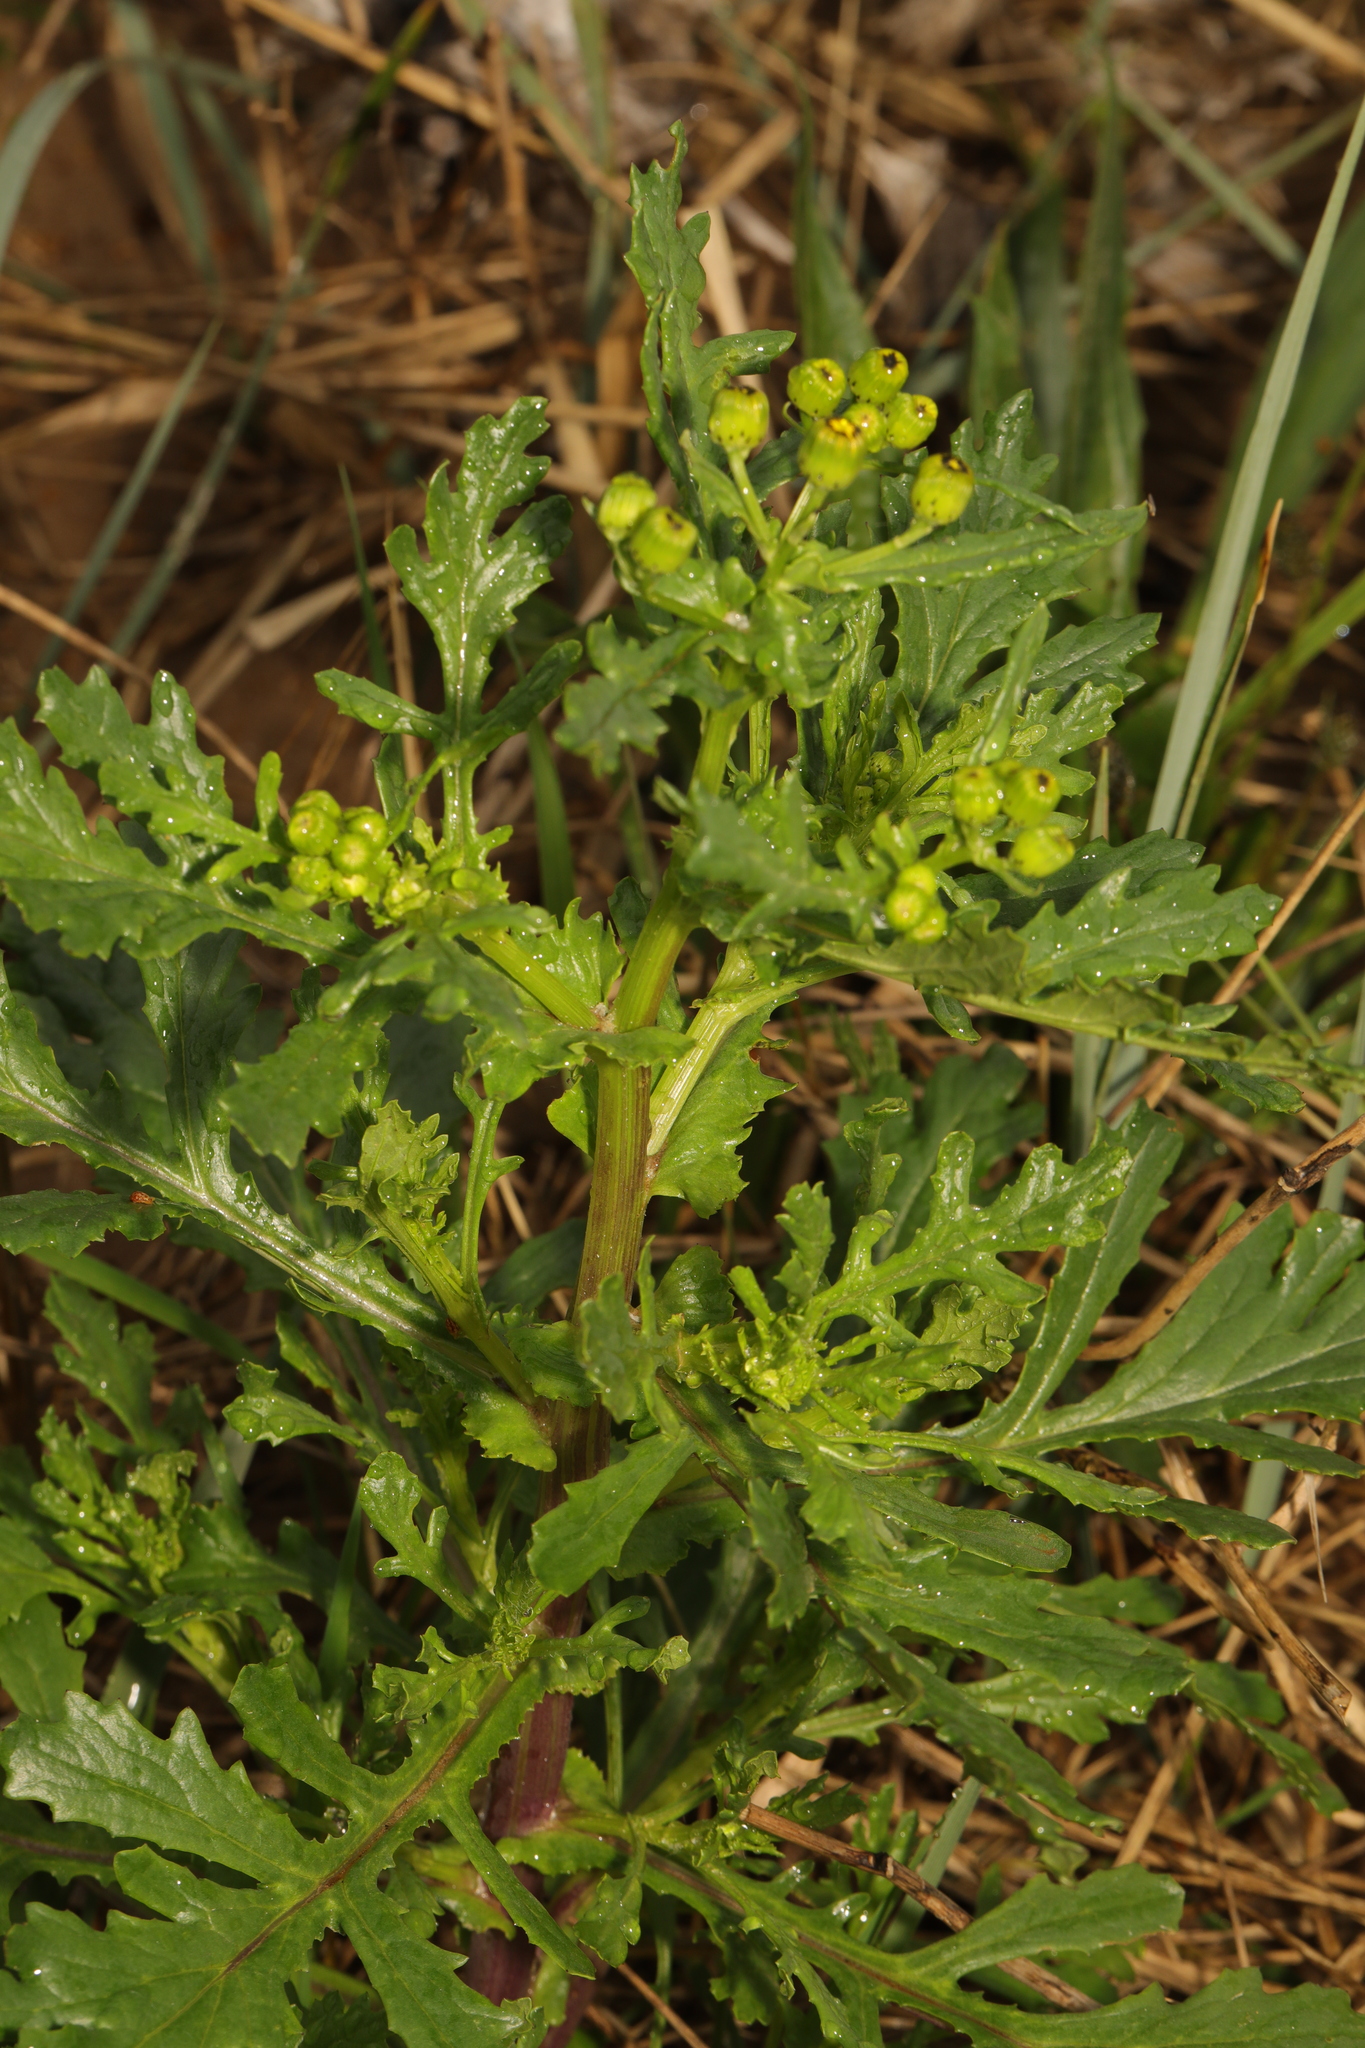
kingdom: Plantae
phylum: Tracheophyta
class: Magnoliopsida
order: Asterales
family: Asteraceae
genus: Senecio
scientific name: Senecio squalidus
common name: Oxford ragwort
